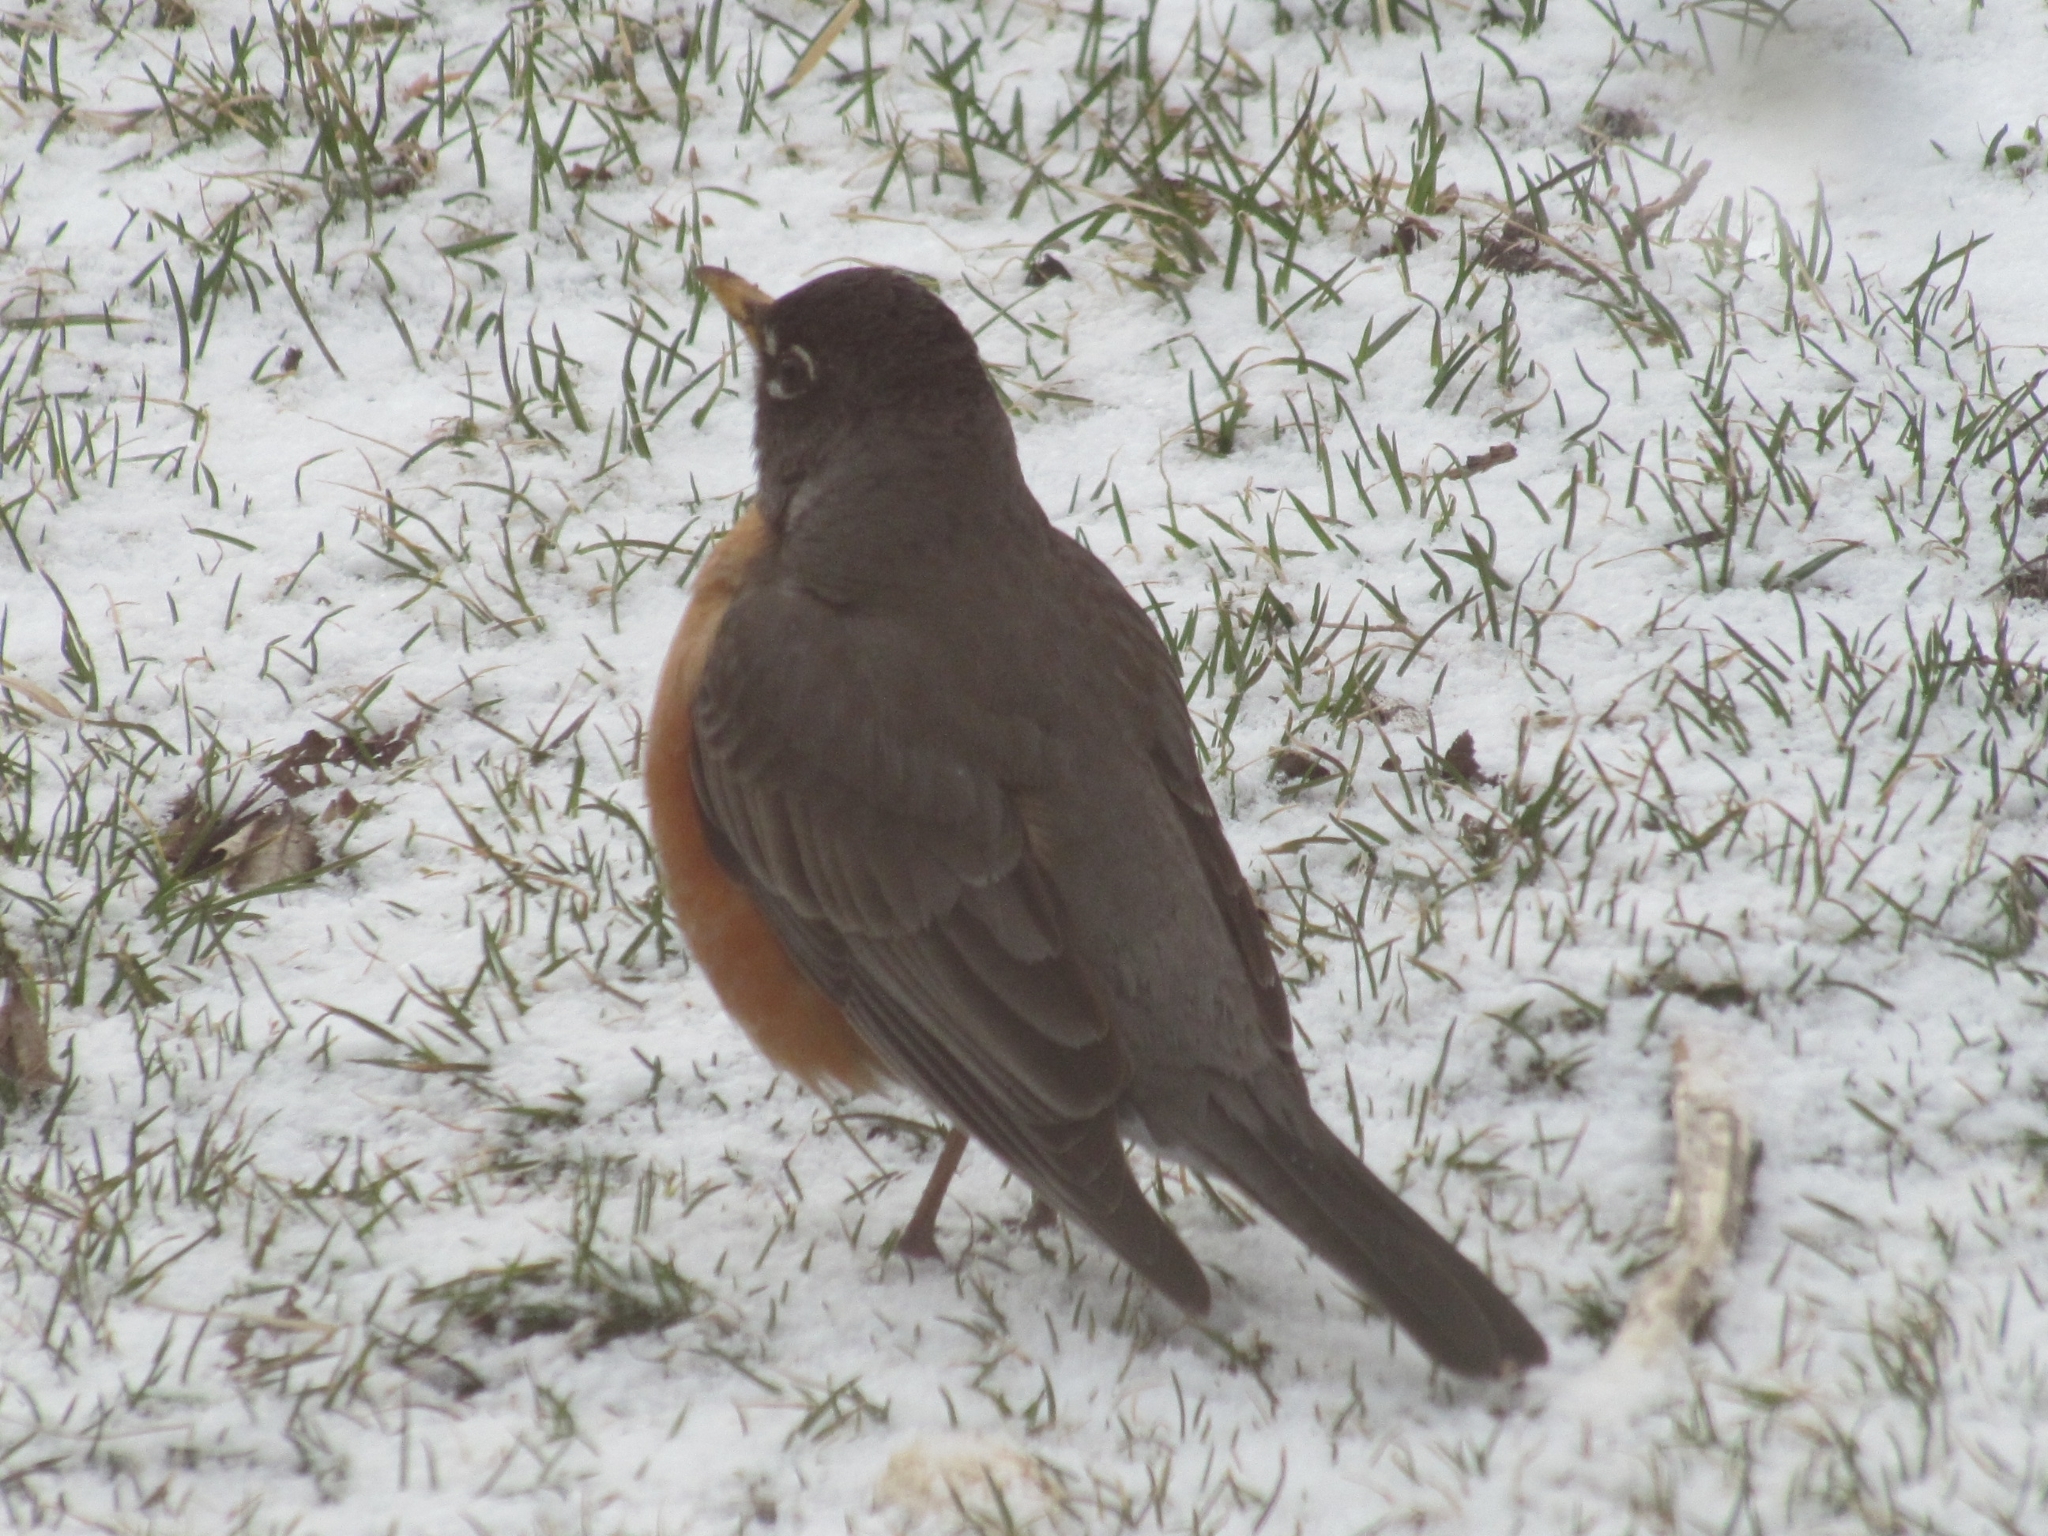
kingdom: Animalia
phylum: Chordata
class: Aves
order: Passeriformes
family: Turdidae
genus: Turdus
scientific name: Turdus migratorius
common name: American robin
